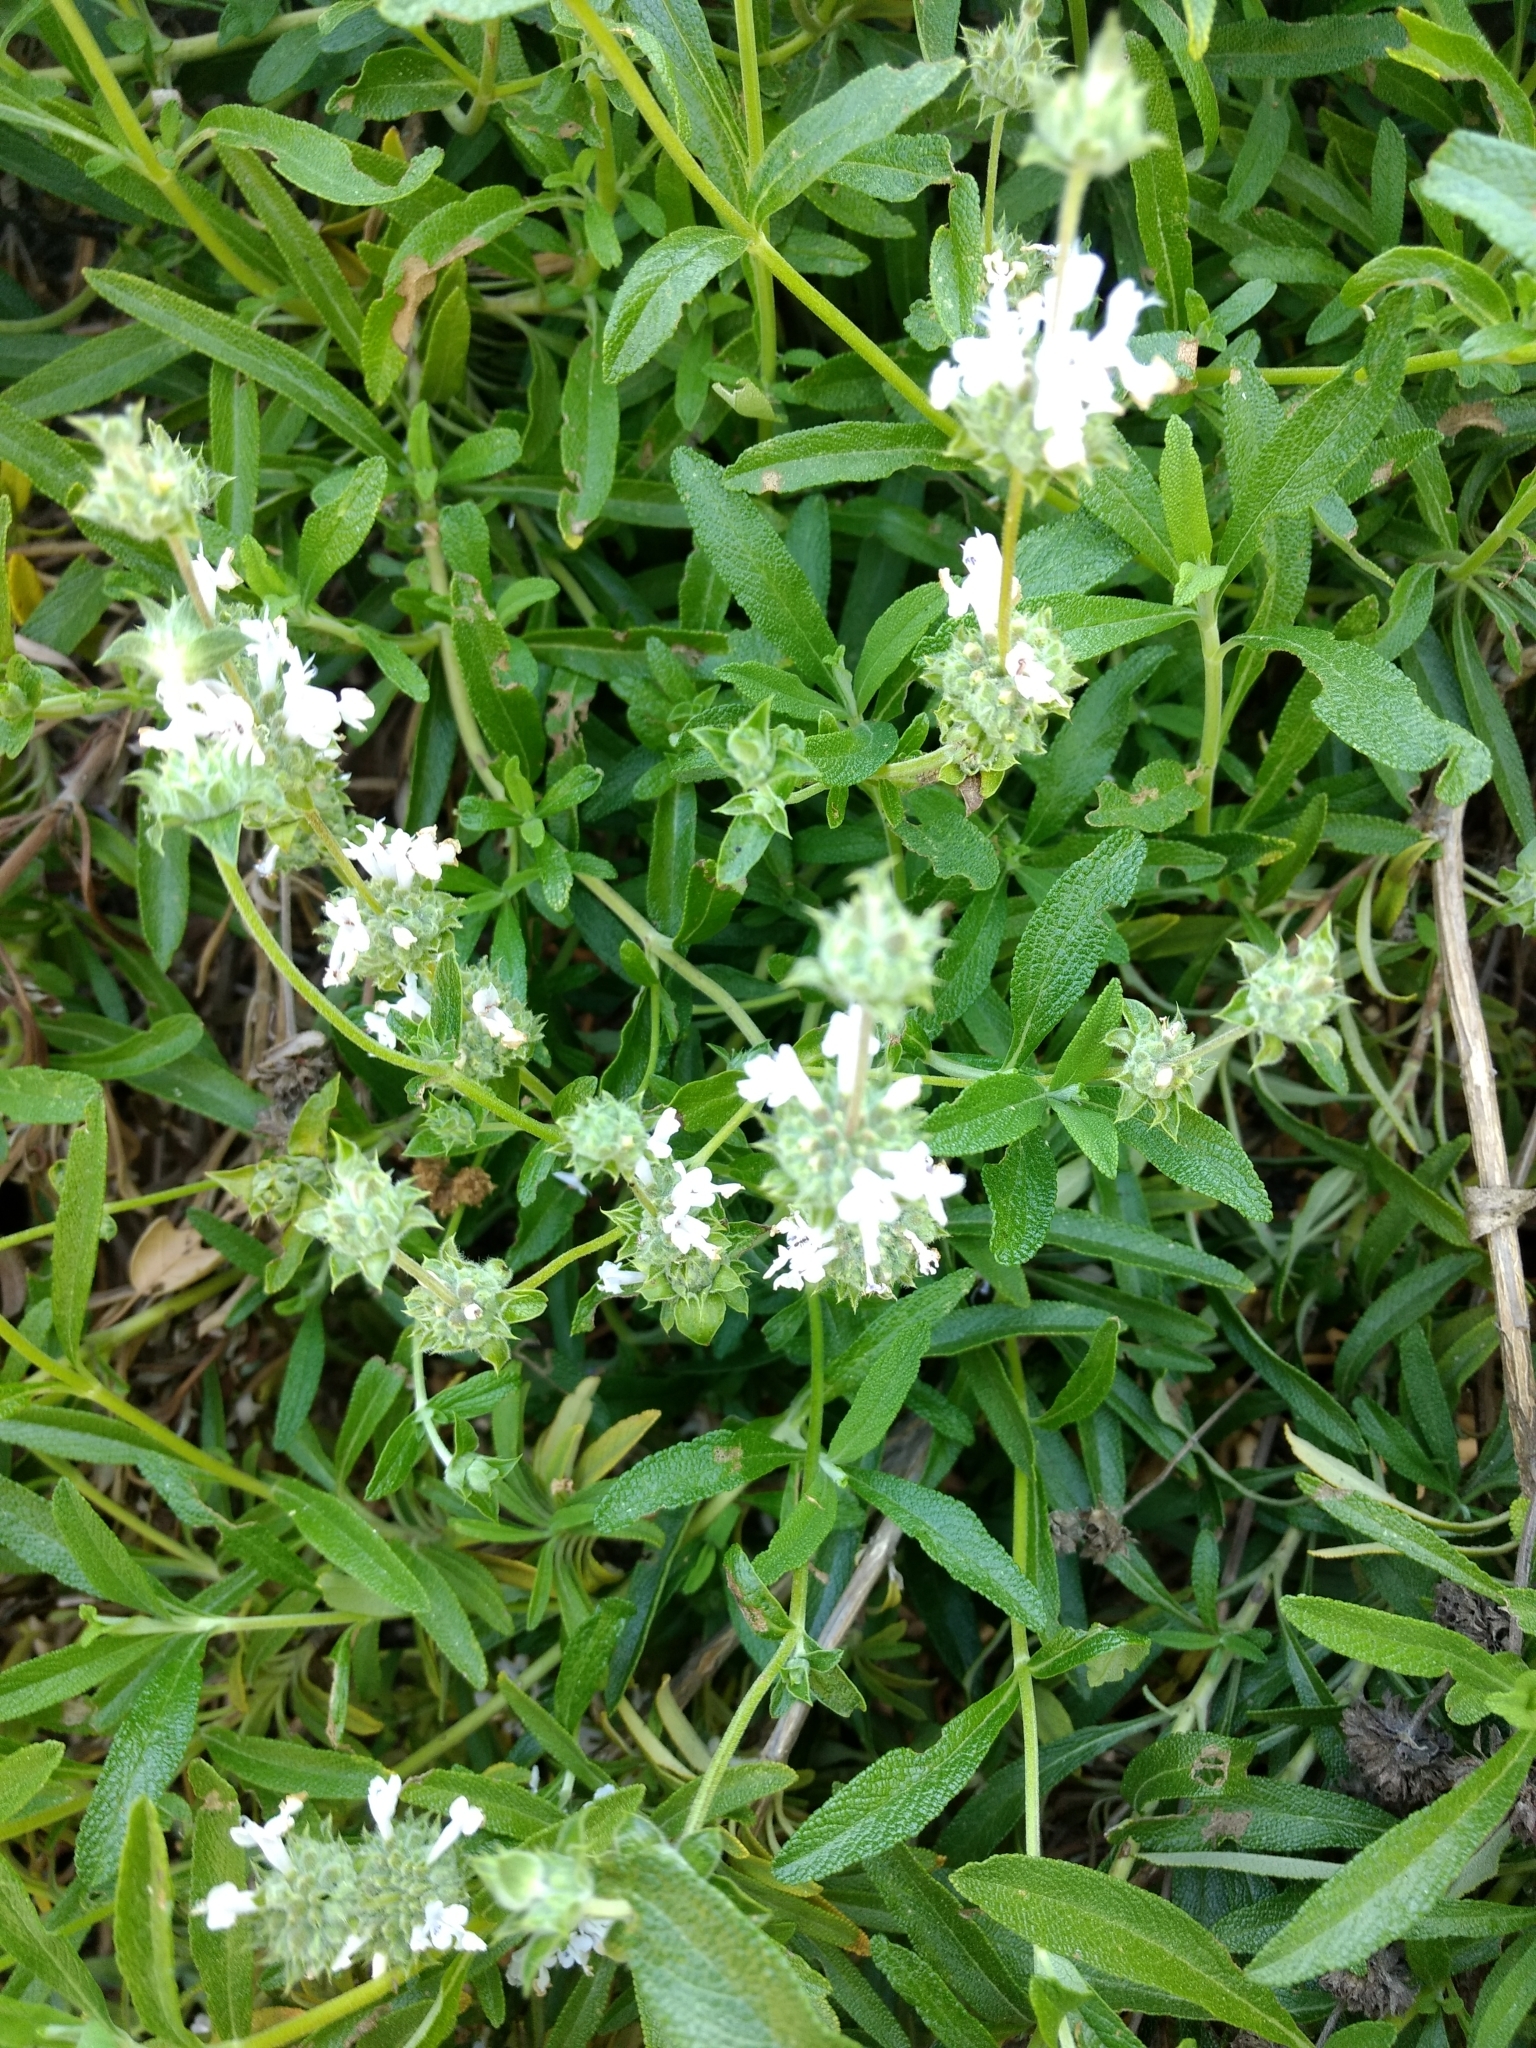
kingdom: Plantae
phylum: Tracheophyta
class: Magnoliopsida
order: Lamiales
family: Lamiaceae
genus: Salvia
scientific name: Salvia mellifera
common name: Black sage
